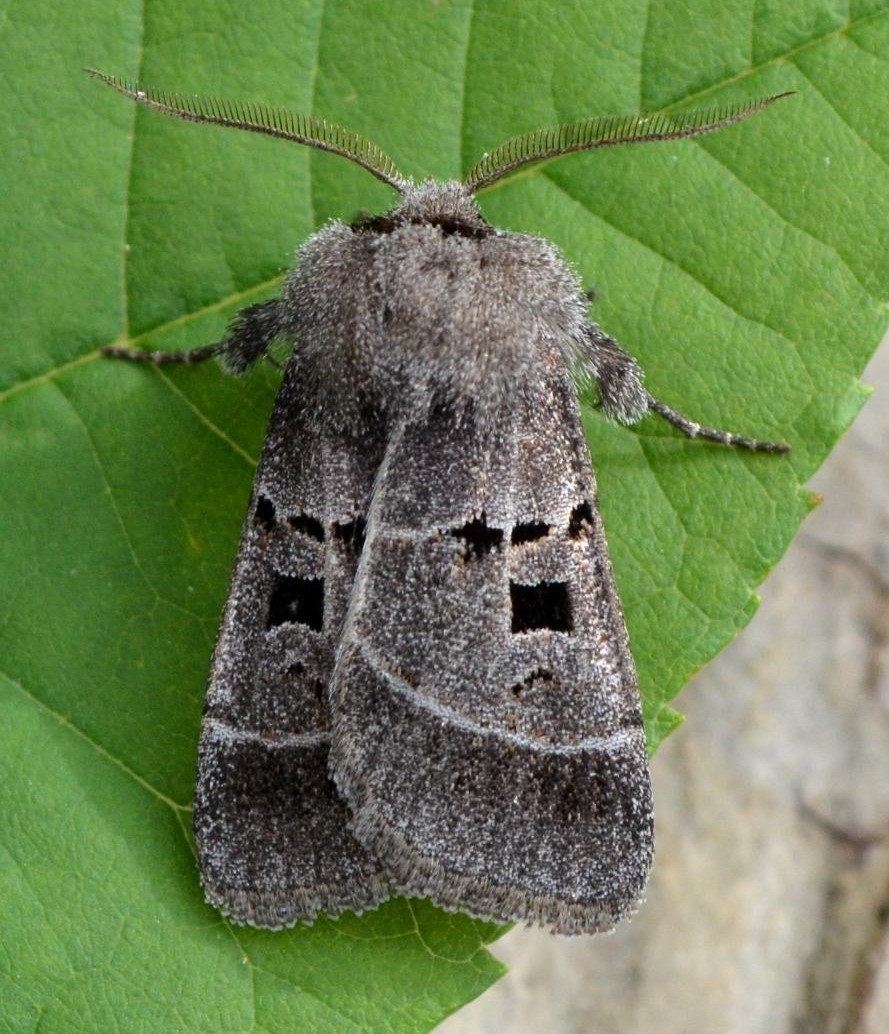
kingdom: Animalia
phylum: Arthropoda
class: Insecta
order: Lepidoptera
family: Noctuidae
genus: Agnorisma
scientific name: Agnorisma bollii
